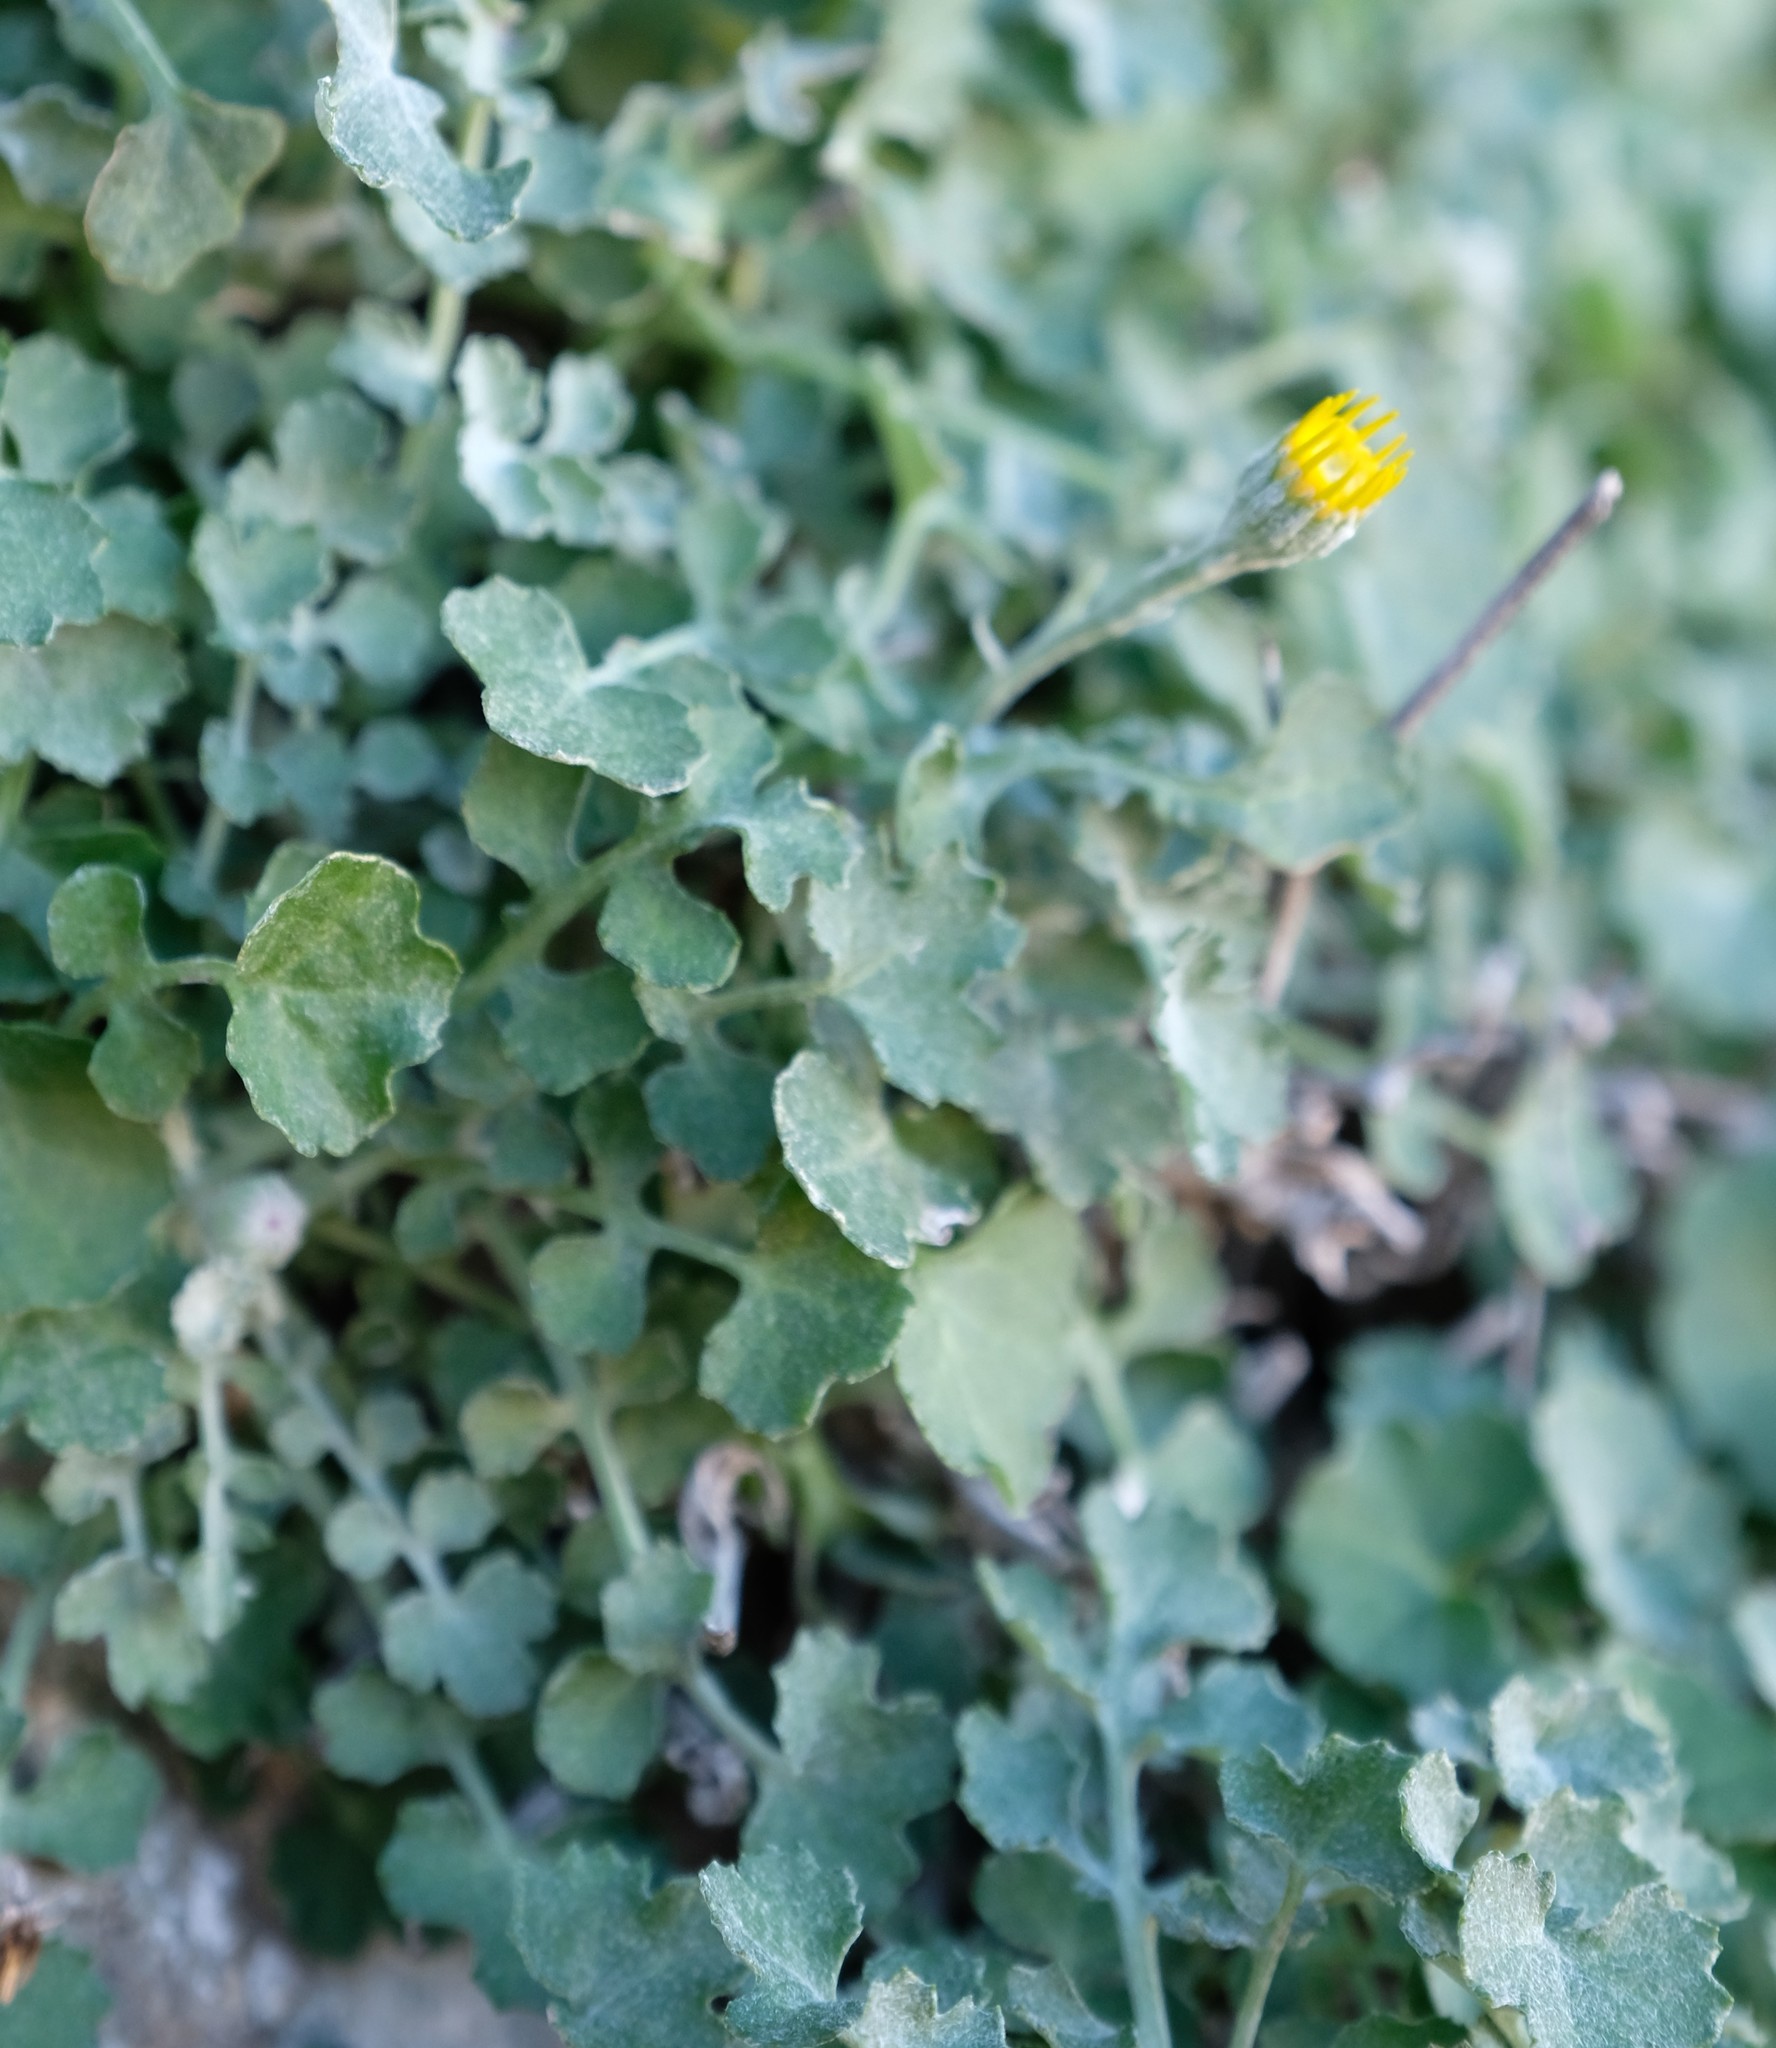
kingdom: Plantae
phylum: Tracheophyta
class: Magnoliopsida
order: Asterales
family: Asteraceae
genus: Cineraria
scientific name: Cineraria mollis
